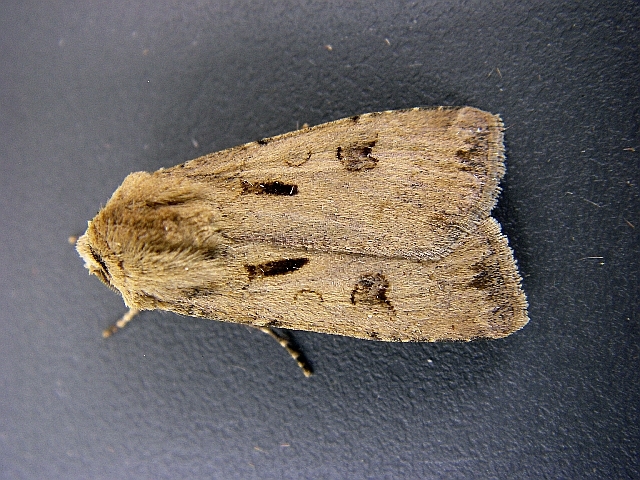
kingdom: Animalia
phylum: Arthropoda
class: Insecta
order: Lepidoptera
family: Noctuidae
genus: Agrotis
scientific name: Agrotis exclamationis
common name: Heart and dart
